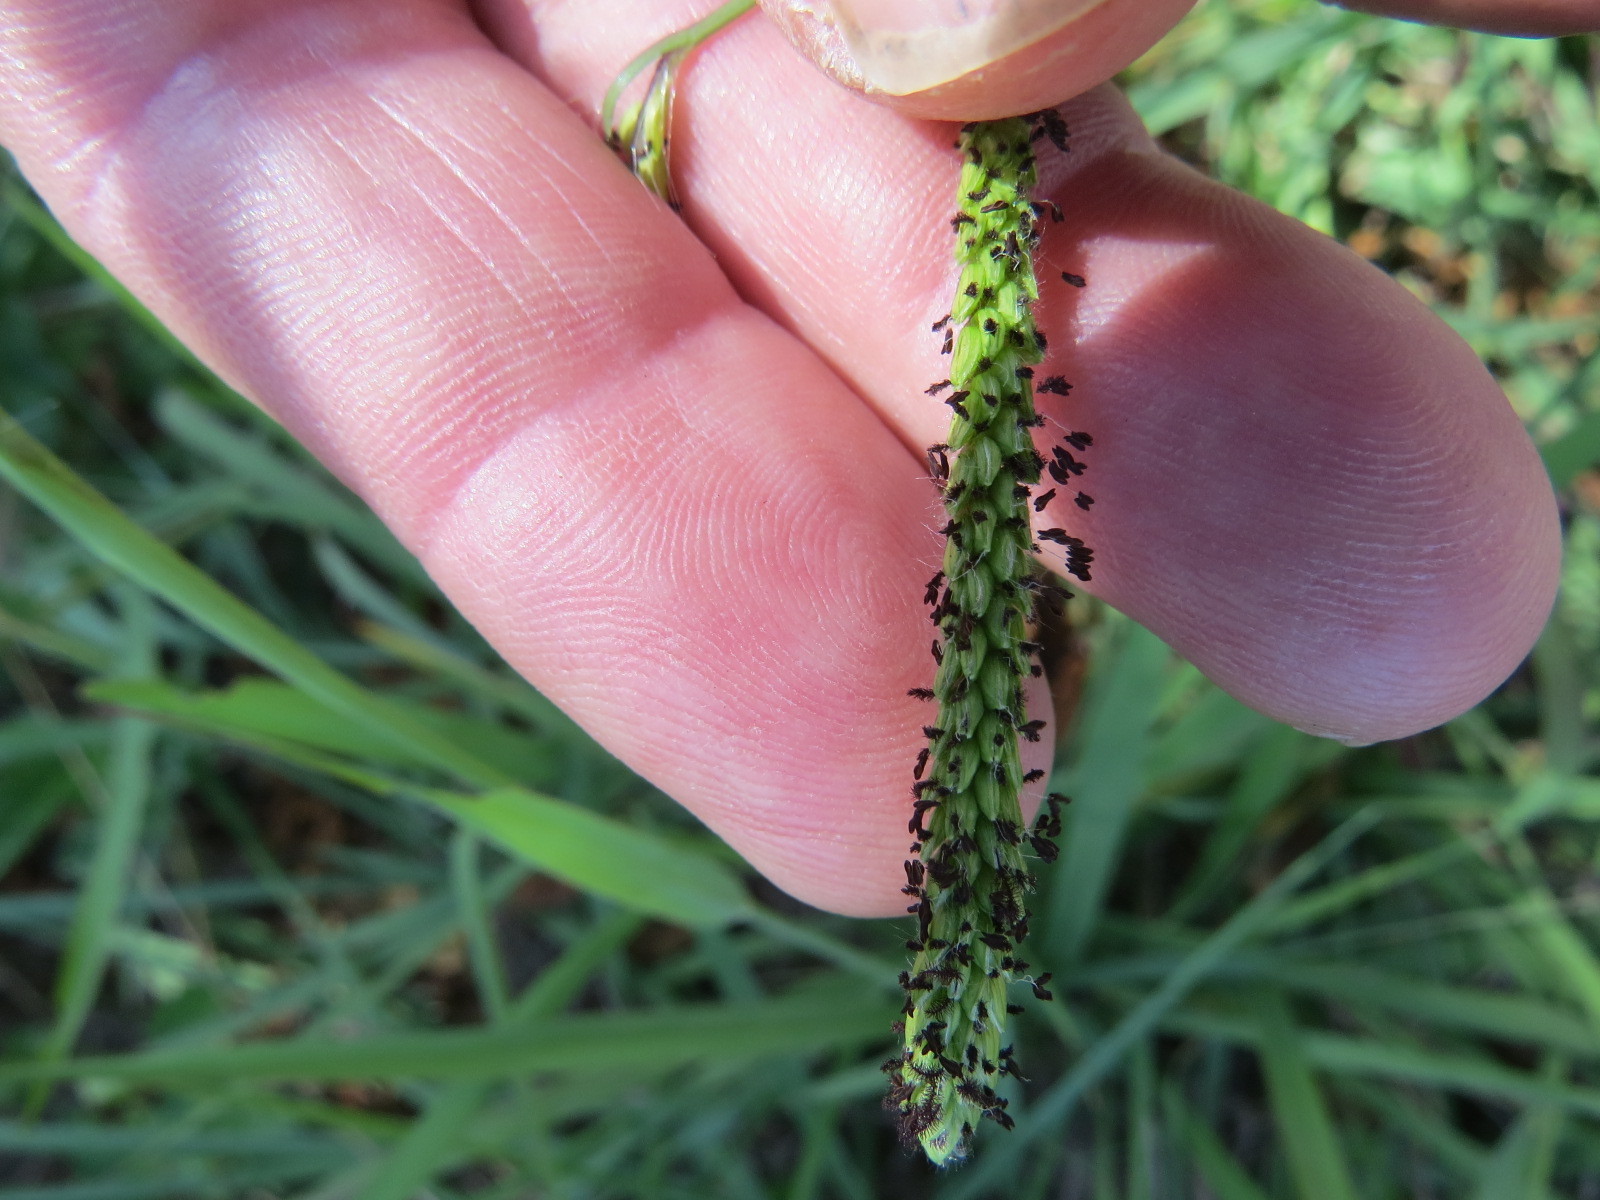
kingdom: Plantae
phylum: Tracheophyta
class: Liliopsida
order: Poales
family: Poaceae
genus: Paspalum
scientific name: Paspalum dilatatum
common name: Dallisgrass
